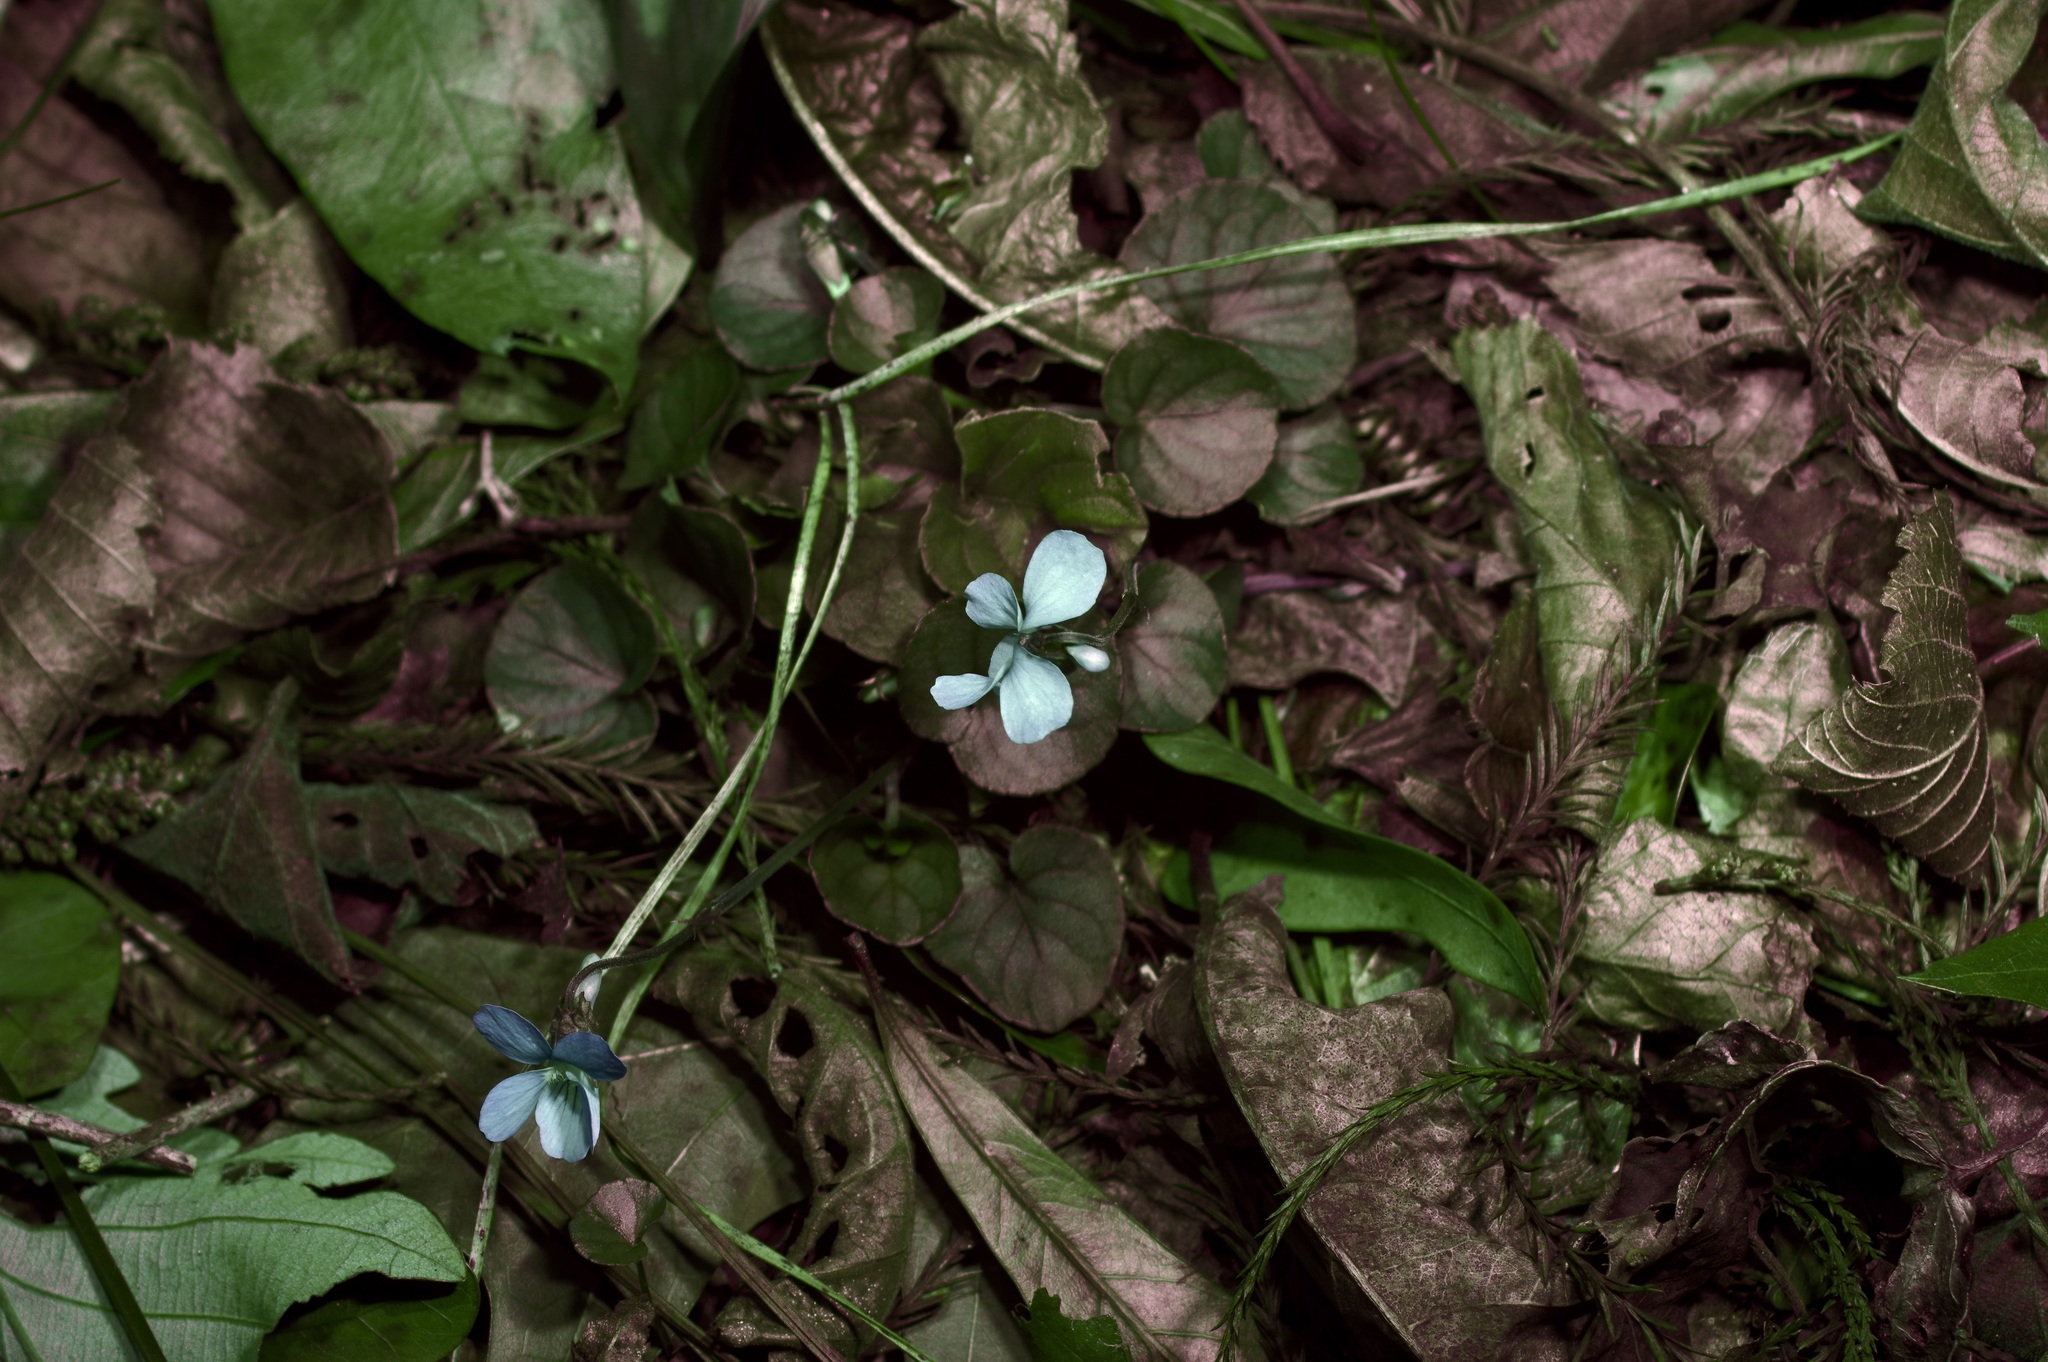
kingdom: Plantae
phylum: Tracheophyta
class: Magnoliopsida
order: Malpighiales
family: Violaceae
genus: Viola
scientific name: Viola walteri
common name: Prostrate southern violet
